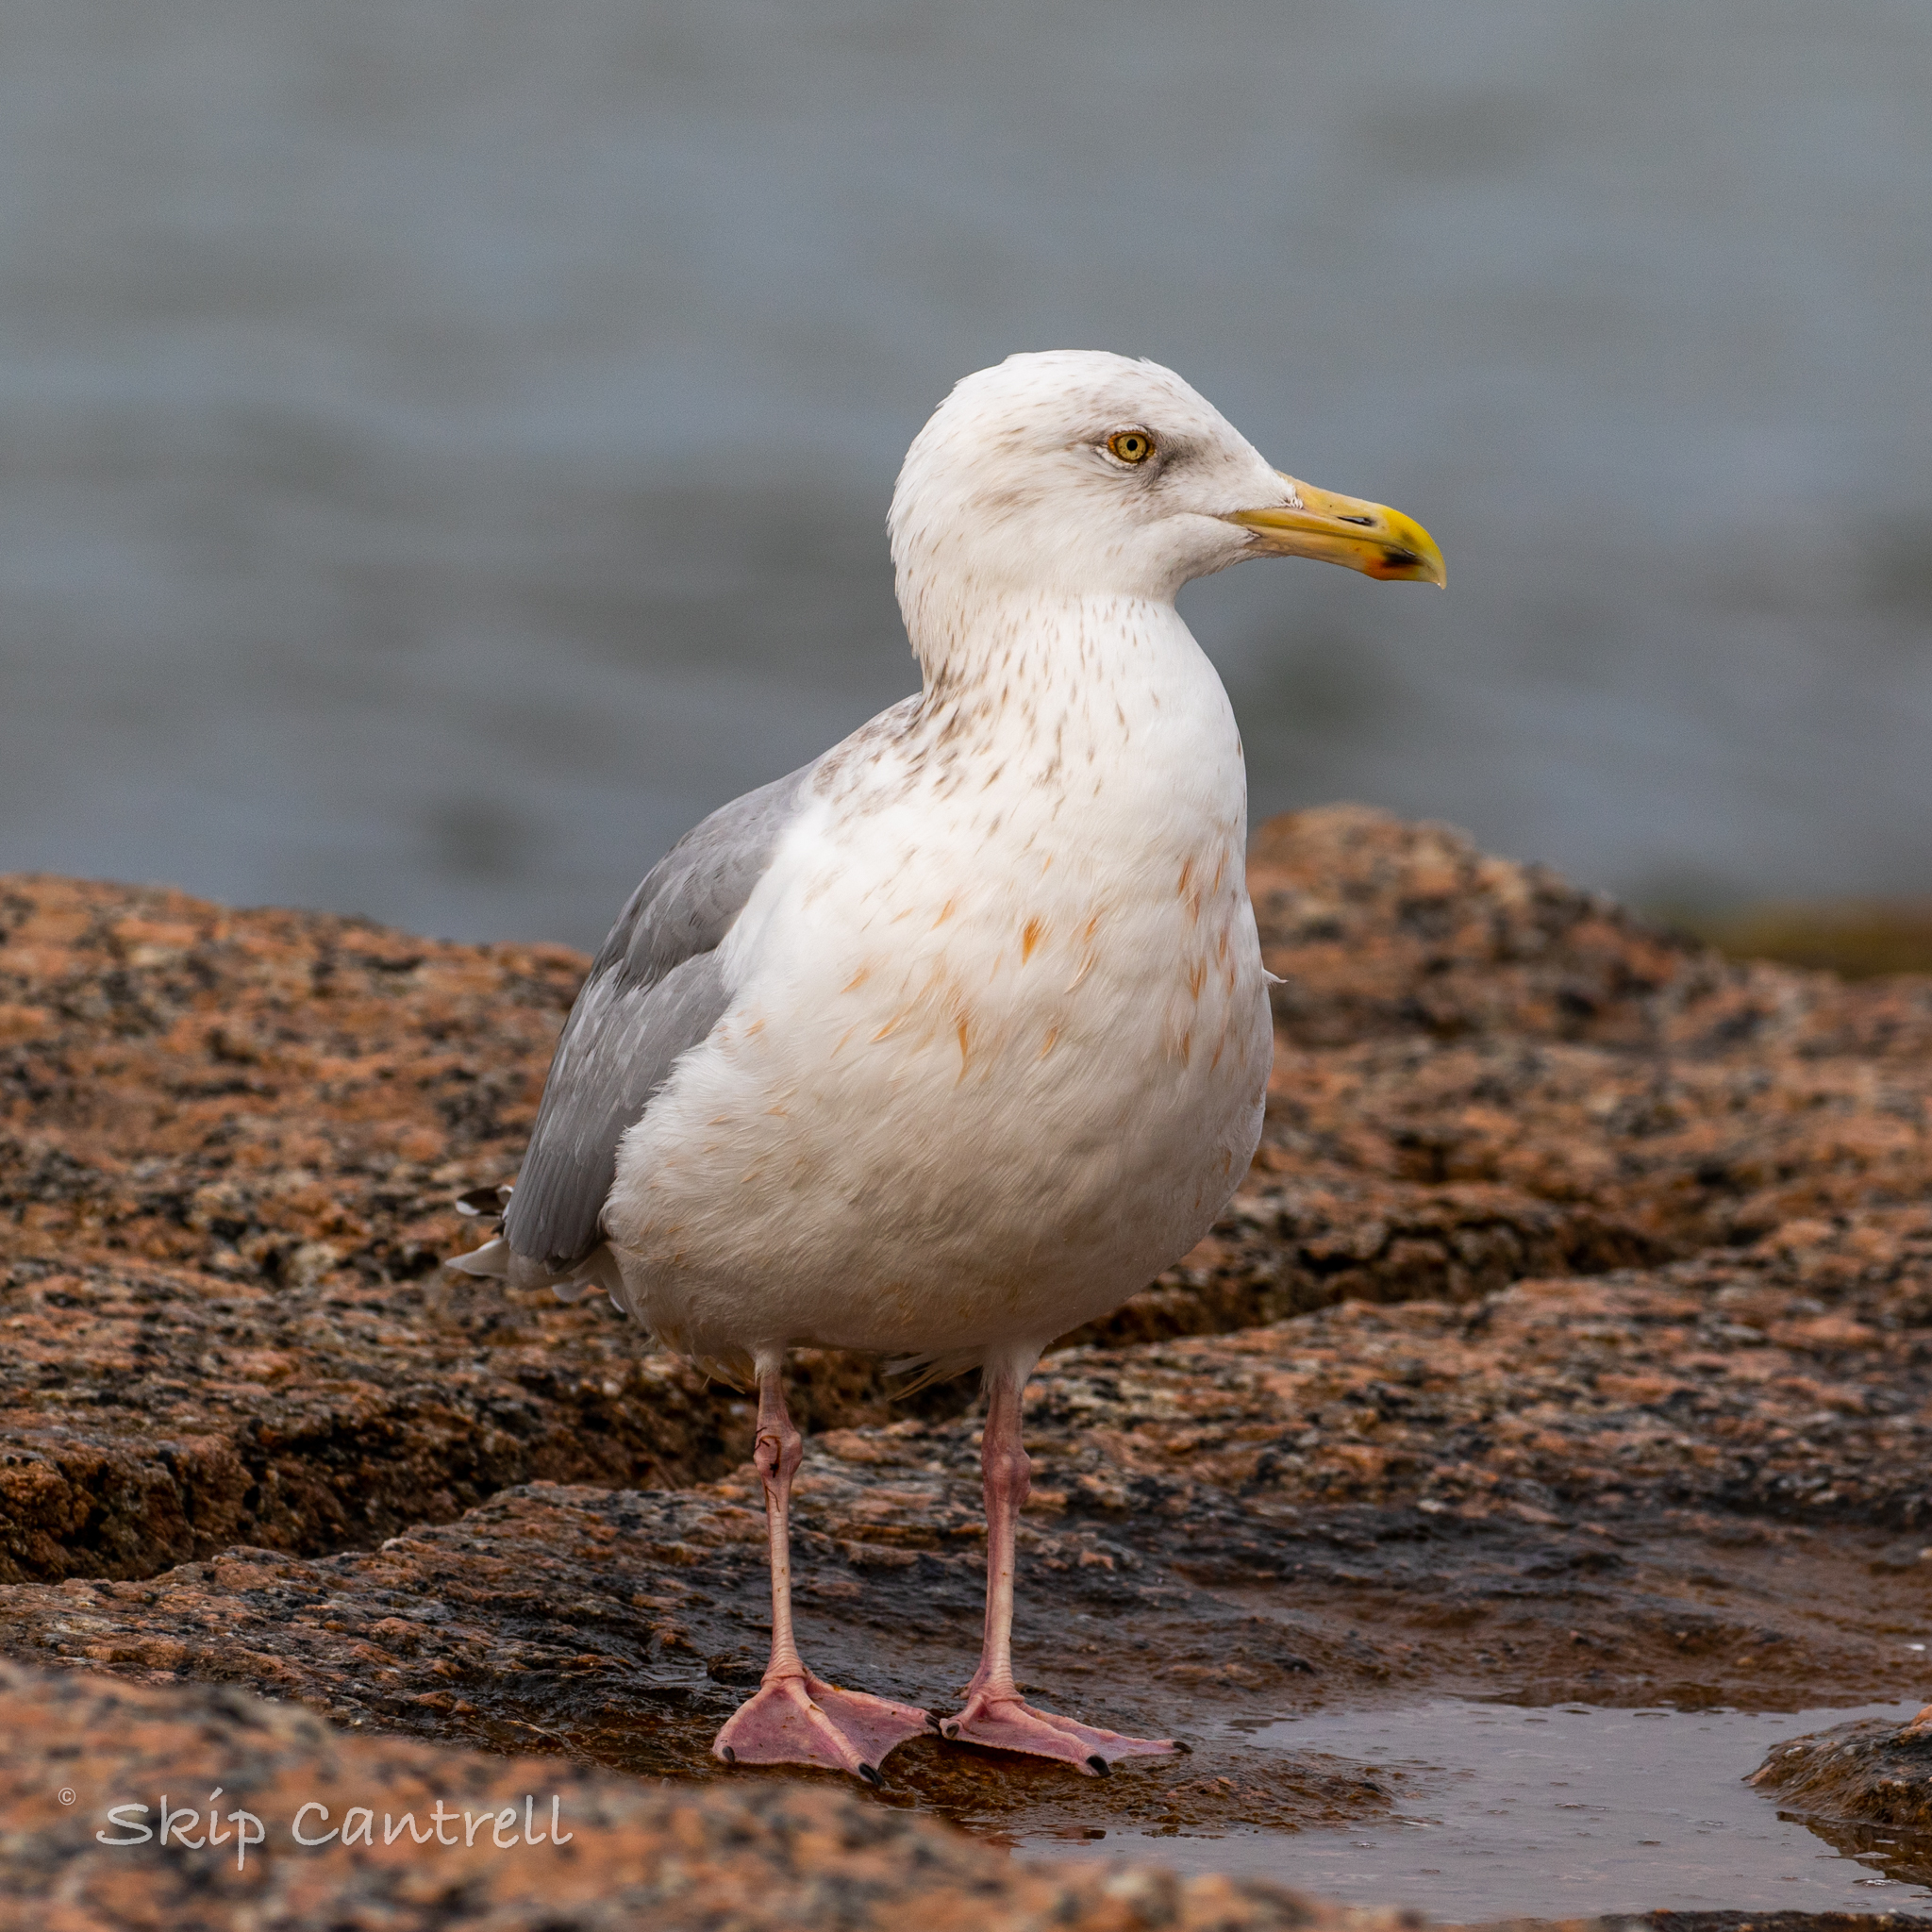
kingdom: Animalia
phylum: Chordata
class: Aves
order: Charadriiformes
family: Laridae
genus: Larus
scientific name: Larus argentatus
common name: Herring gull
